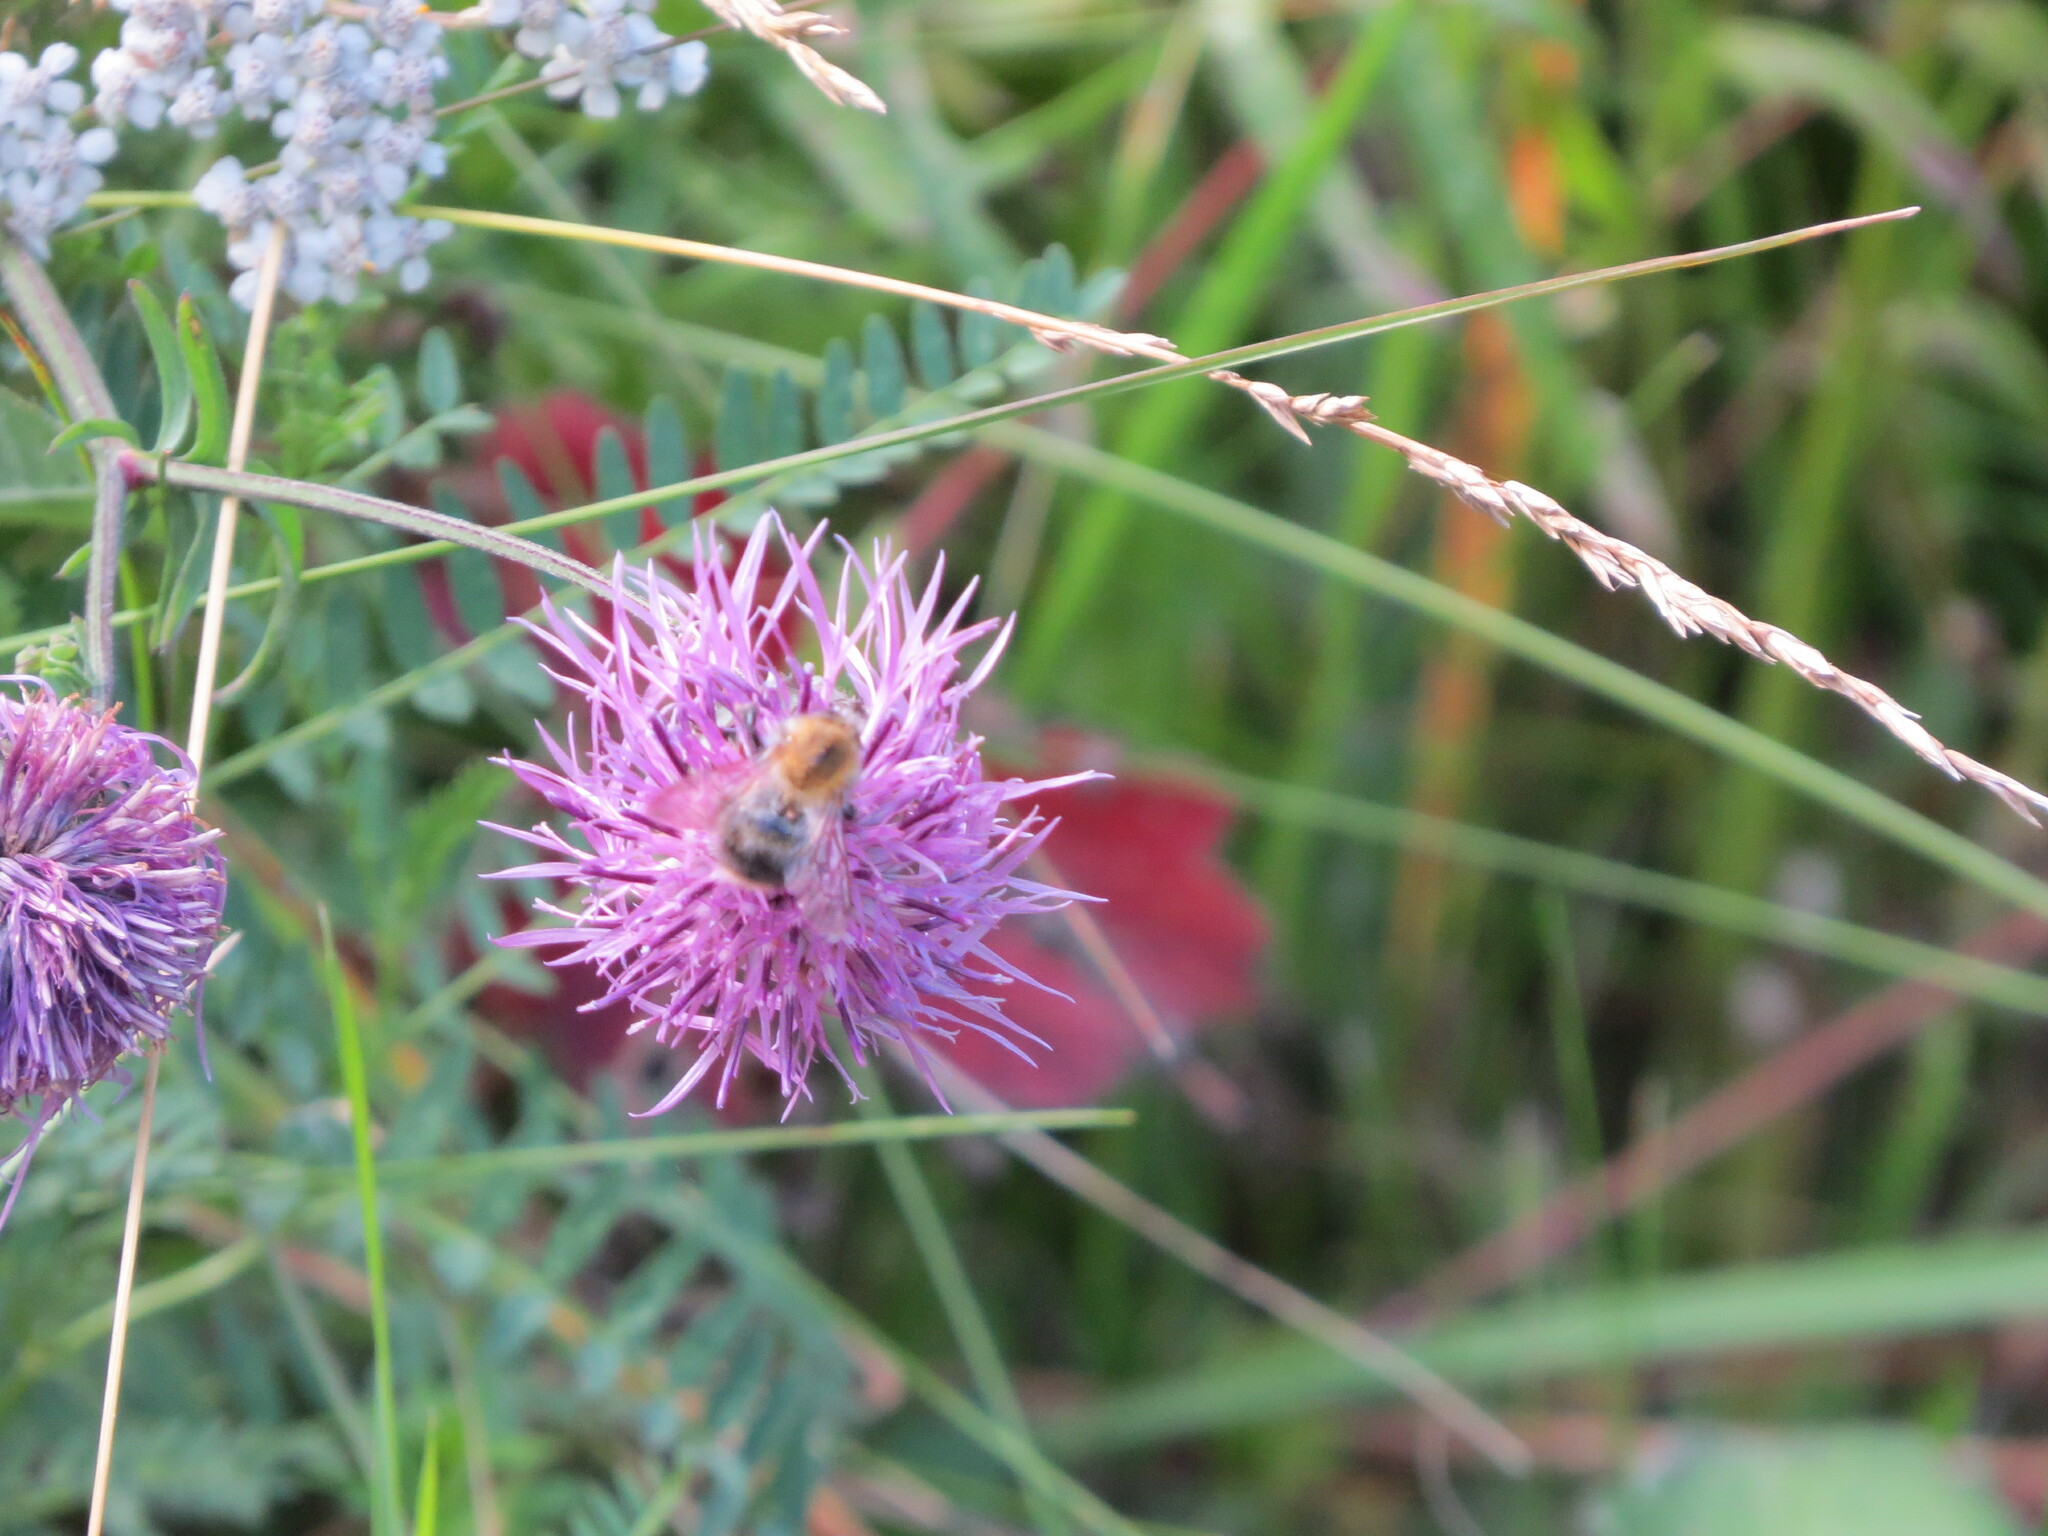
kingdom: Animalia
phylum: Arthropoda
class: Insecta
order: Hymenoptera
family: Apidae
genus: Bombus
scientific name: Bombus pascuorum
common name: Common carder bee
